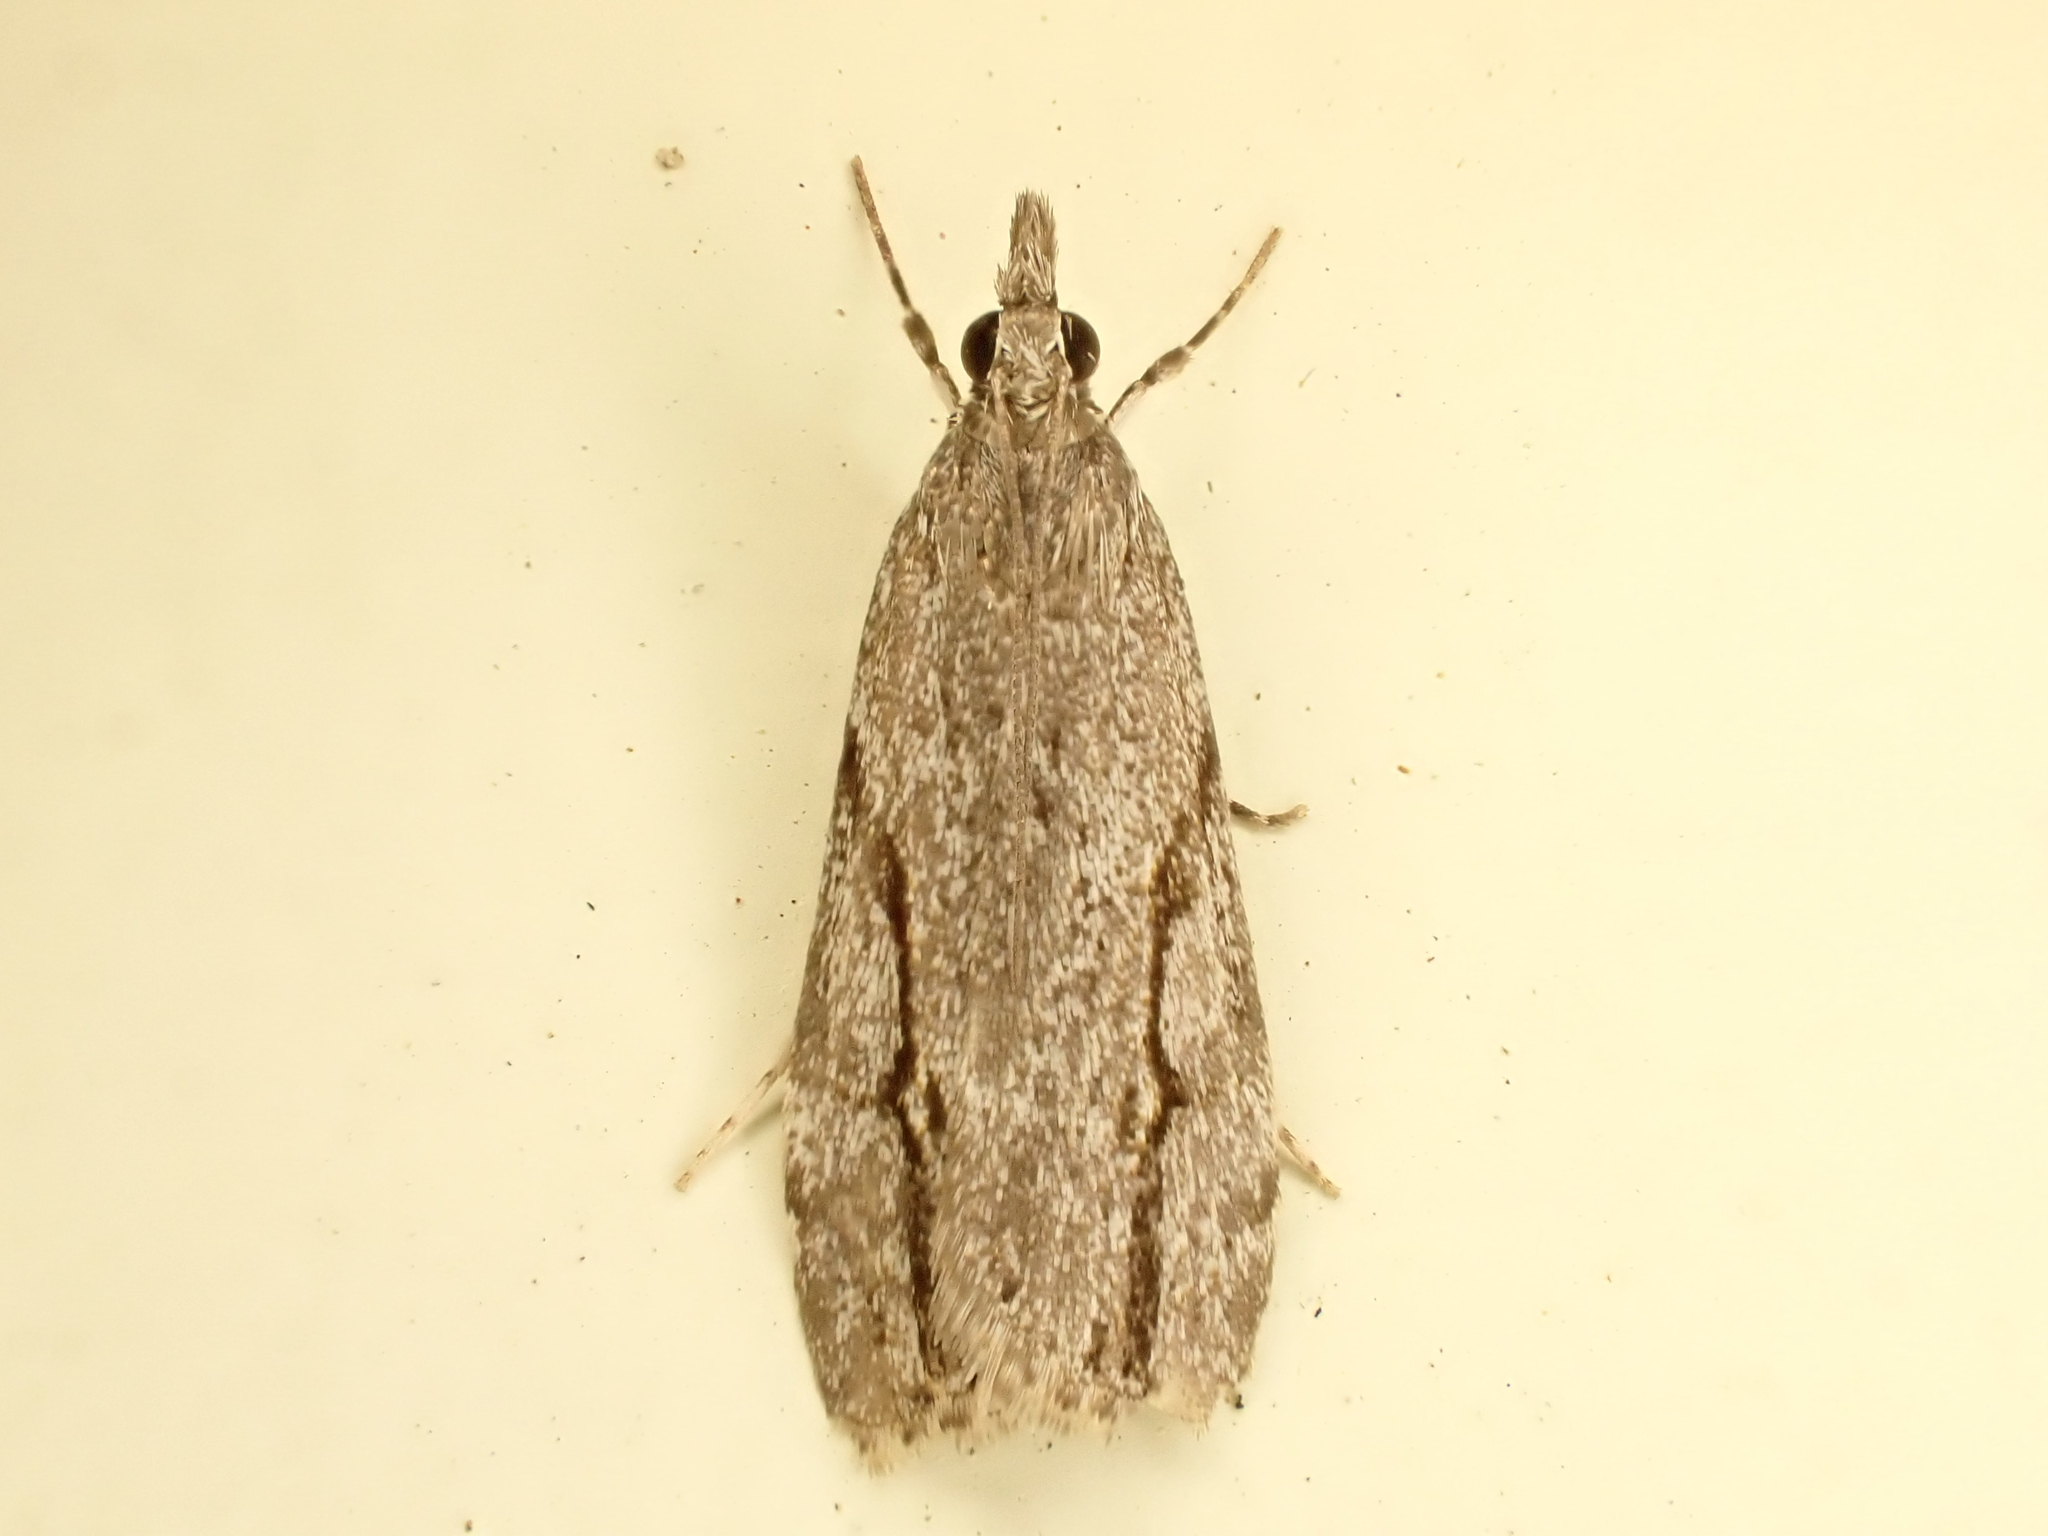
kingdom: Animalia
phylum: Arthropoda
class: Insecta
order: Lepidoptera
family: Crambidae
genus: Eudonia
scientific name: Eudonia bisinualis
